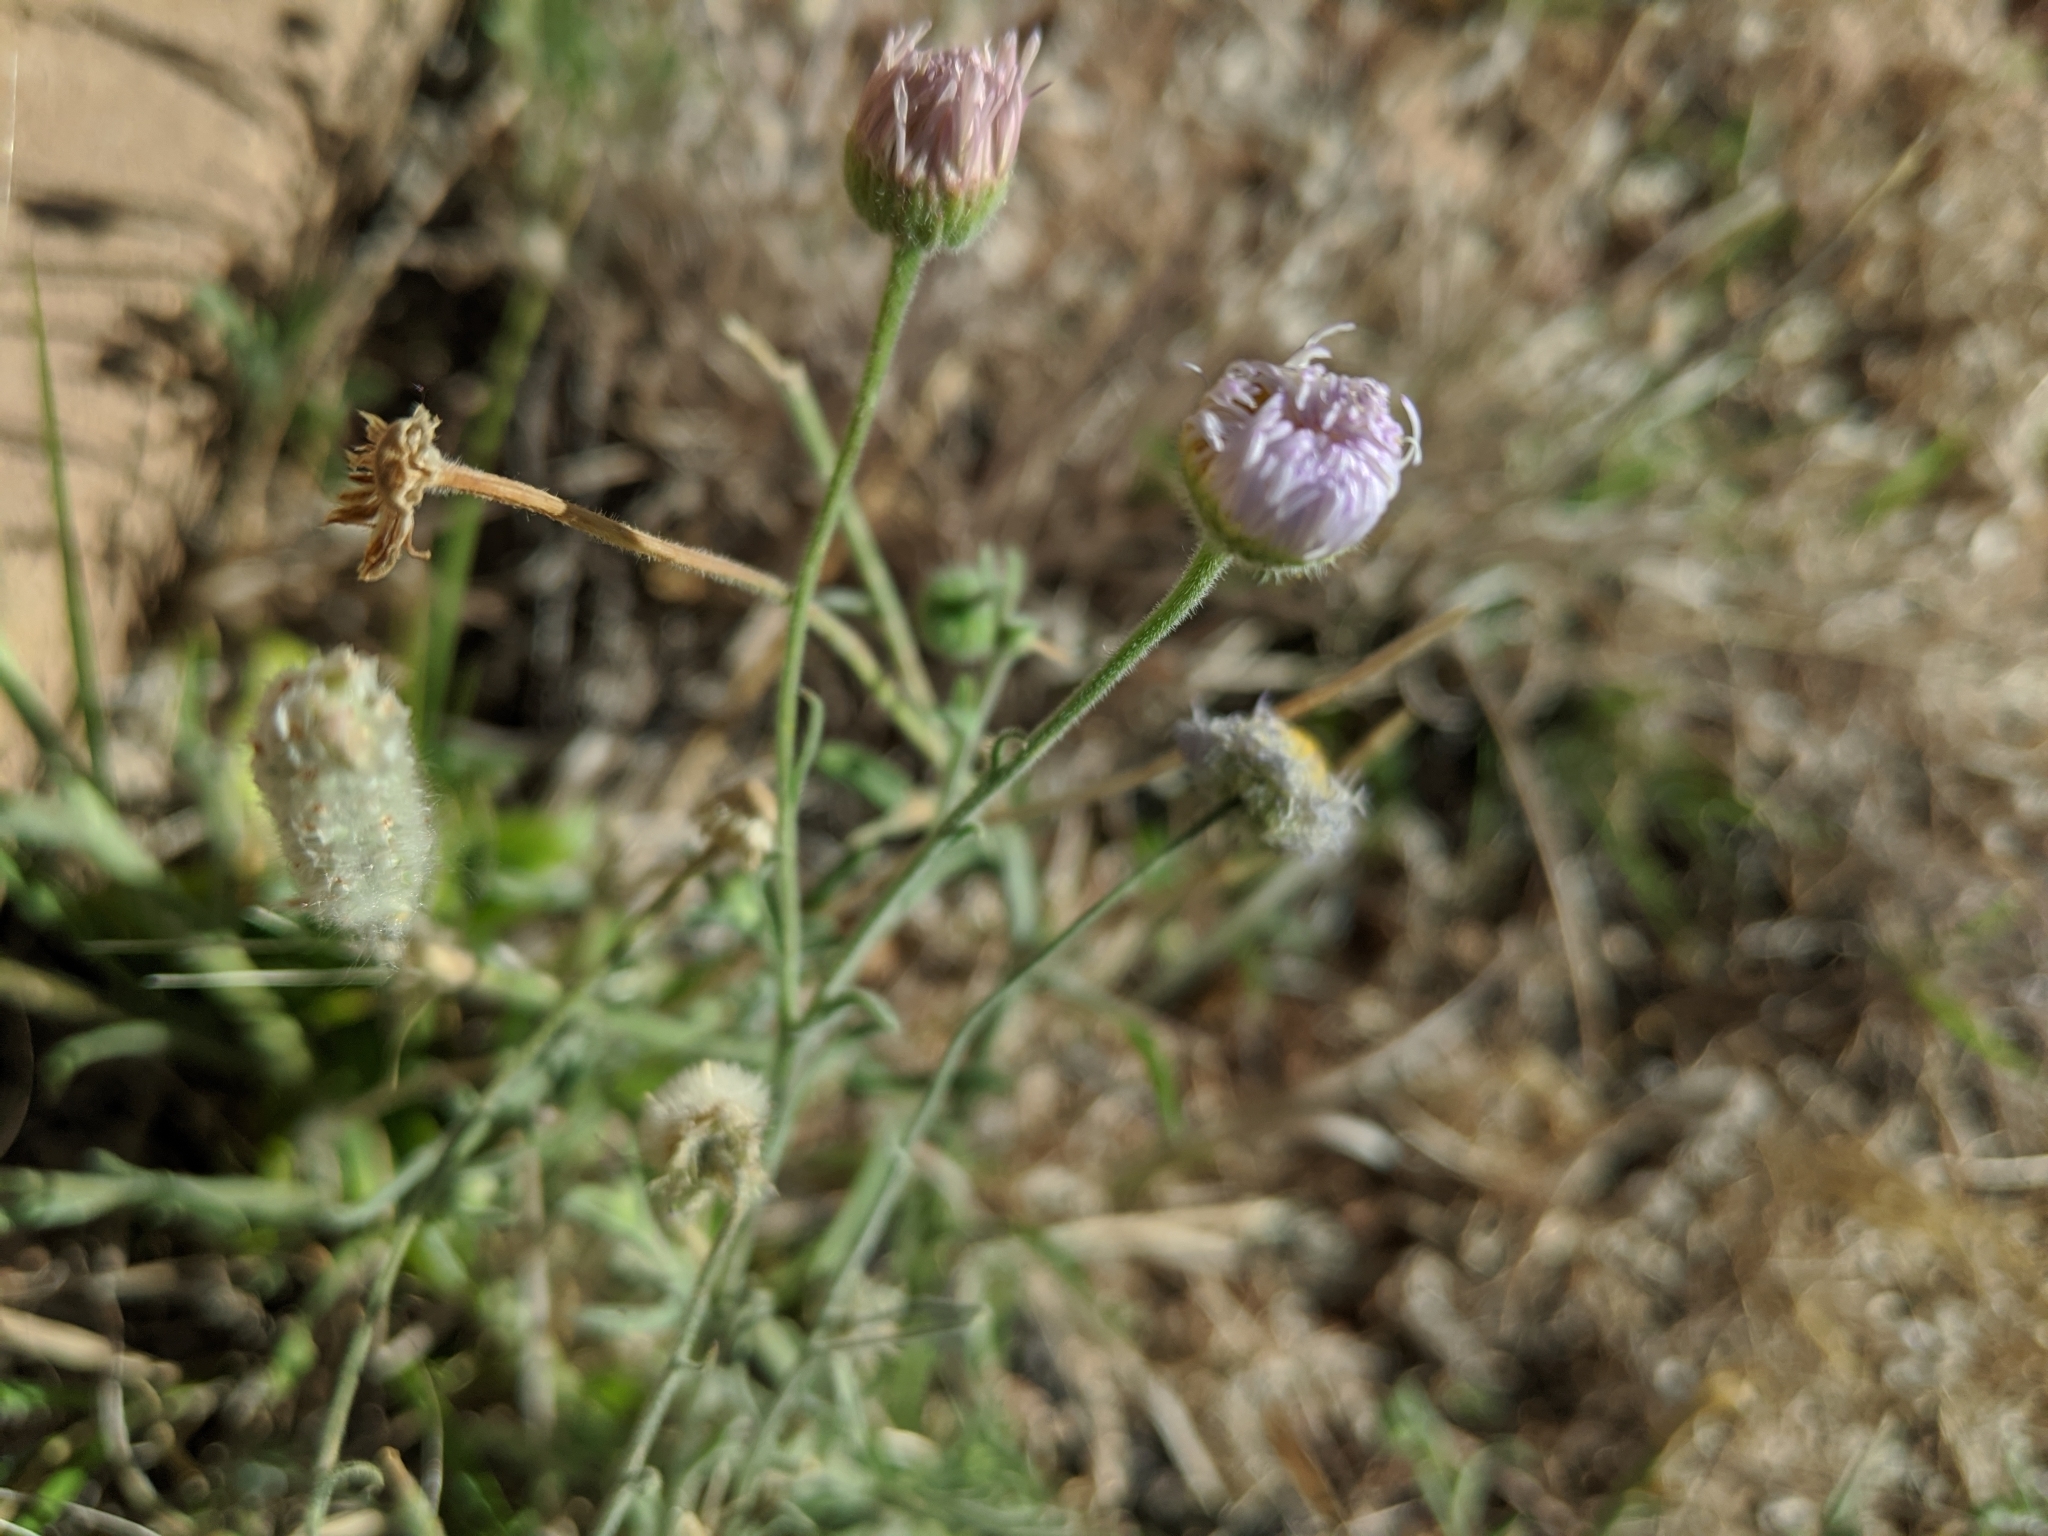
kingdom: Plantae
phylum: Tracheophyta
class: Magnoliopsida
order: Asterales
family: Asteraceae
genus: Erigeron
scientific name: Erigeron divergens
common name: Diffuse fleabane
